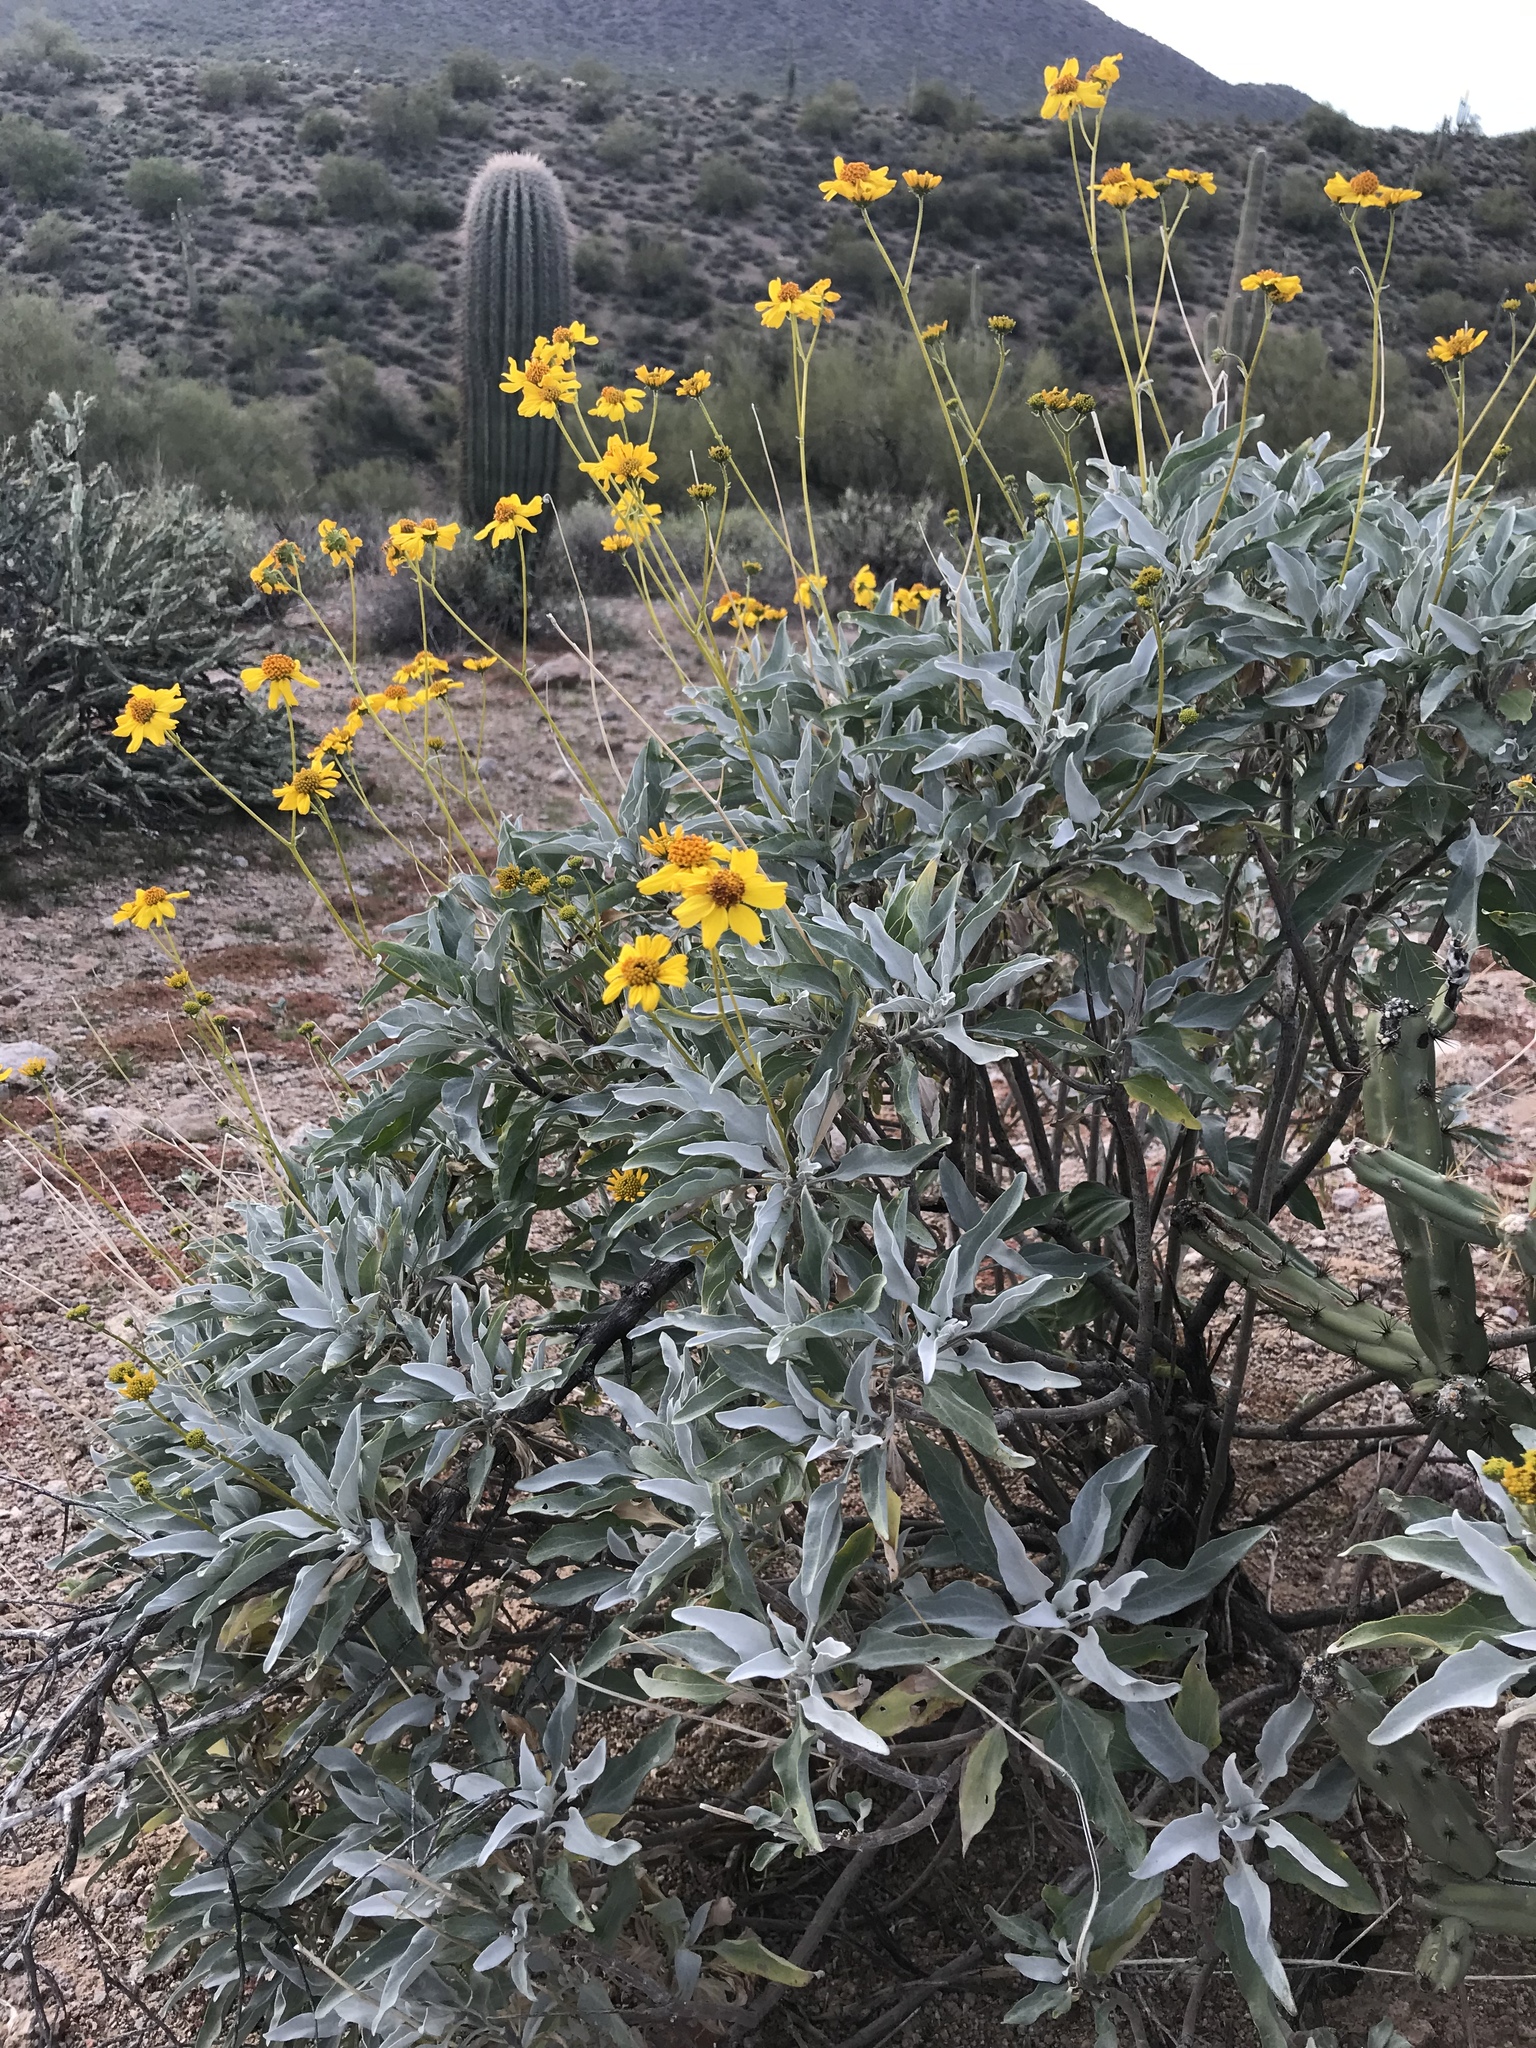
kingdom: Plantae
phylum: Tracheophyta
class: Magnoliopsida
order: Asterales
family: Asteraceae
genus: Encelia
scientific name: Encelia farinosa
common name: Brittlebush
